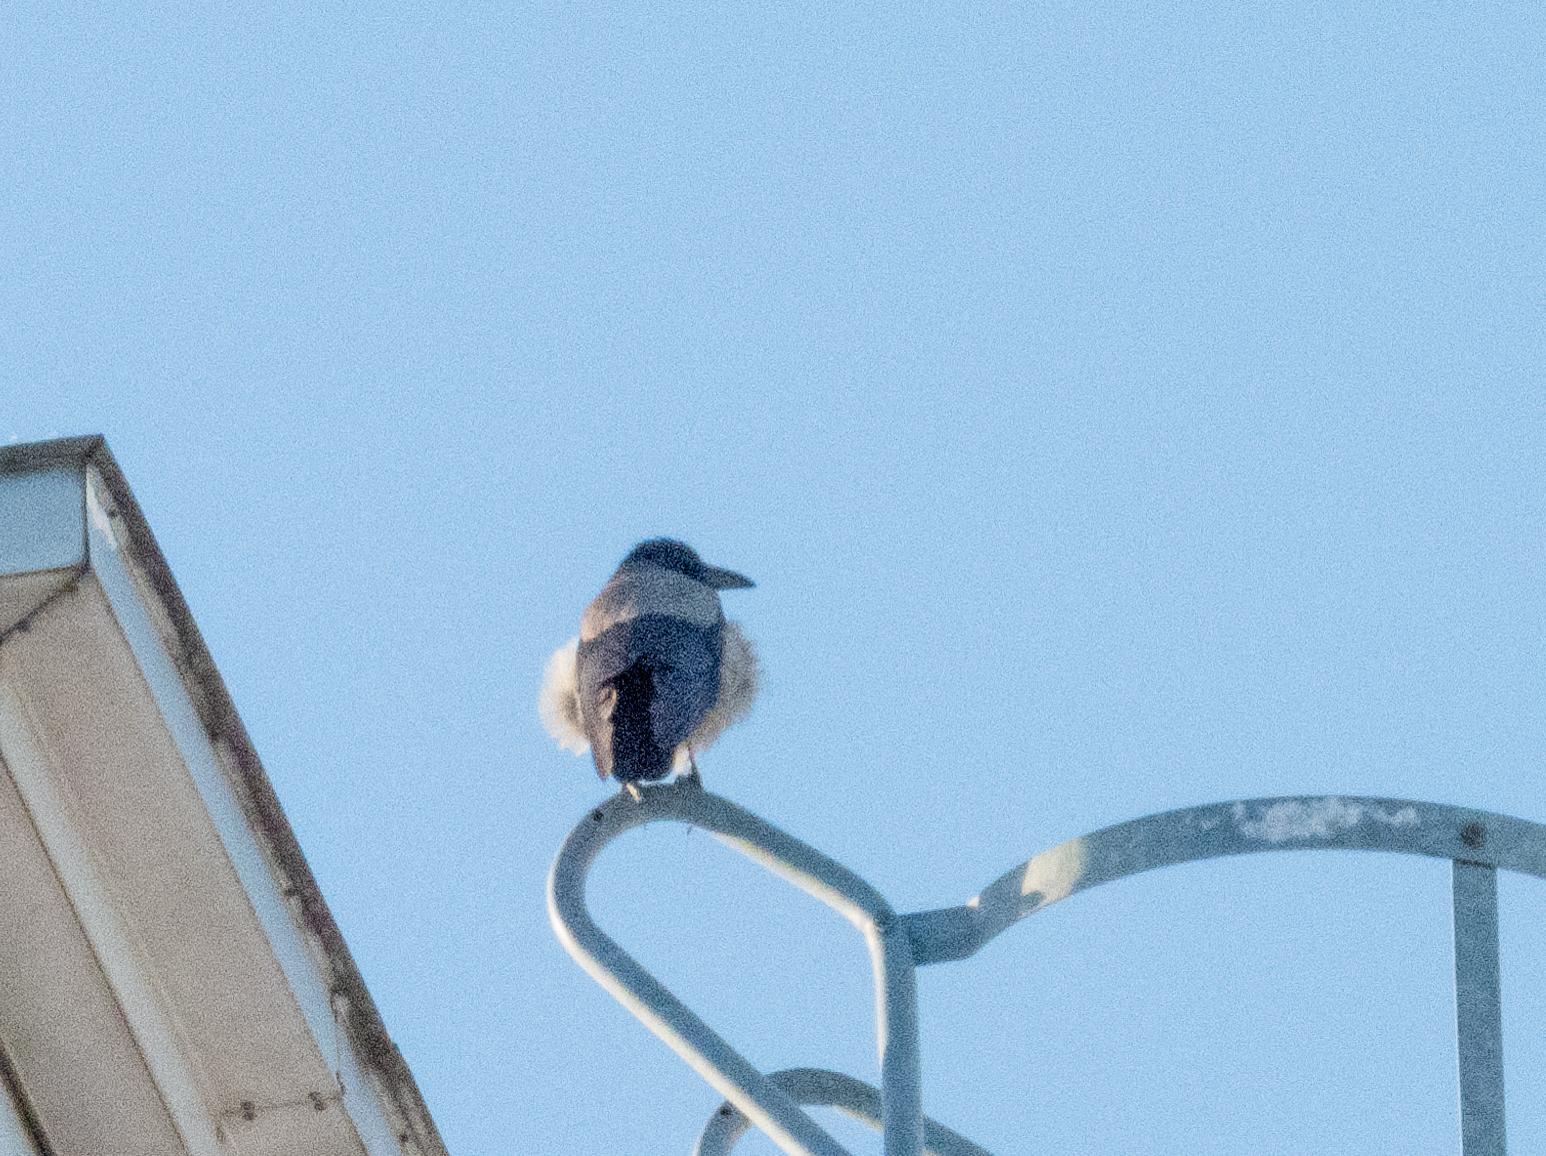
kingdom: Animalia
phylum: Chordata
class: Aves
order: Passeriformes
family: Corvidae
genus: Corvus
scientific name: Corvus cornix
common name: Hooded crow
